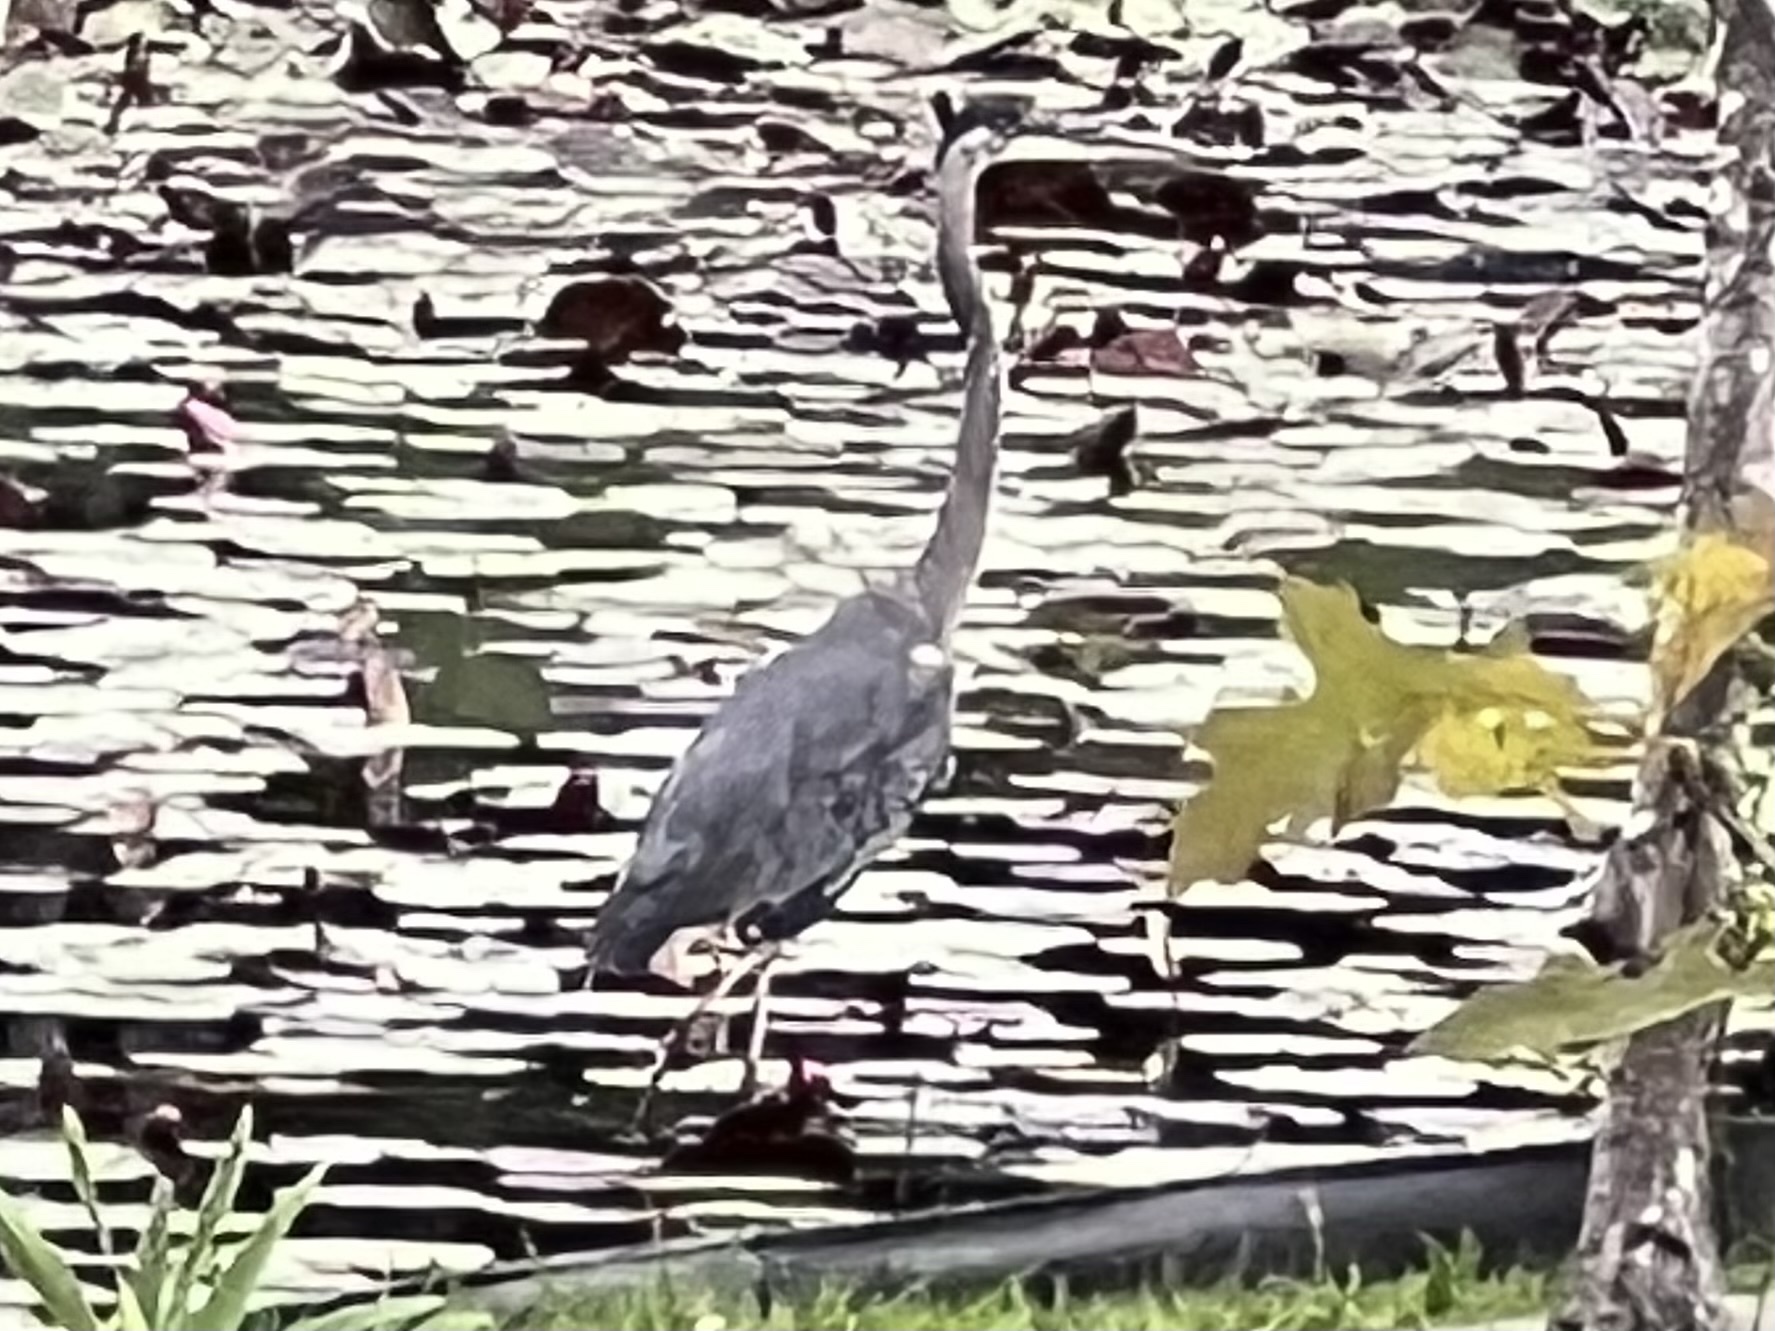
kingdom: Animalia
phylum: Chordata
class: Aves
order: Pelecaniformes
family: Ardeidae
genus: Ardea
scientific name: Ardea herodias
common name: Great blue heron
